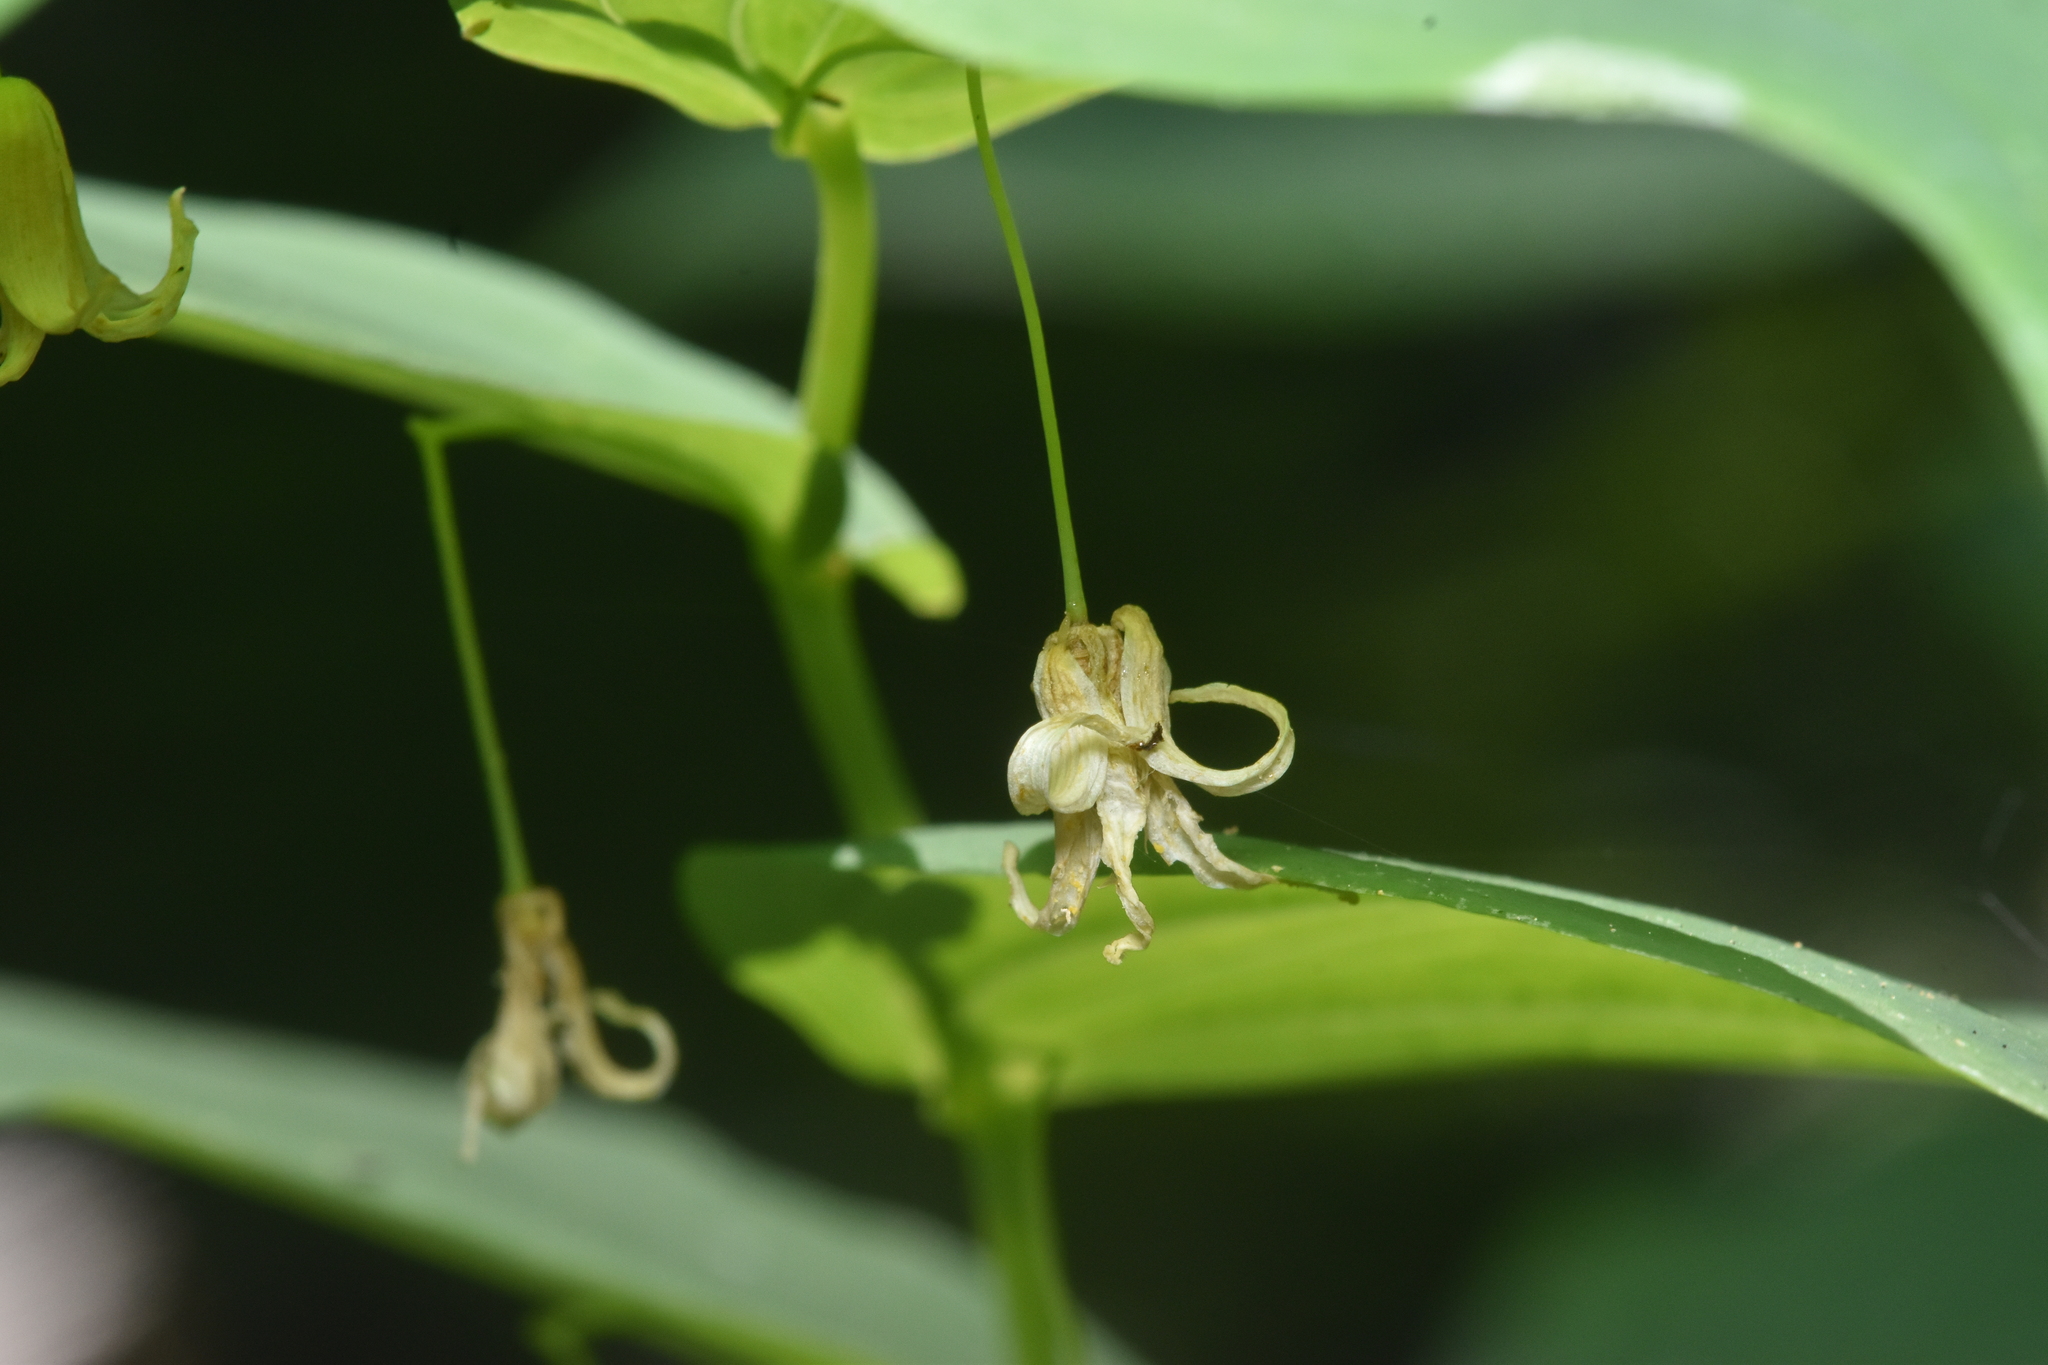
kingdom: Plantae
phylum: Tracheophyta
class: Liliopsida
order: Liliales
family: Liliaceae
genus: Streptopus
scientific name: Streptopus amplexifolius
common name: Clasp twisted stalk
